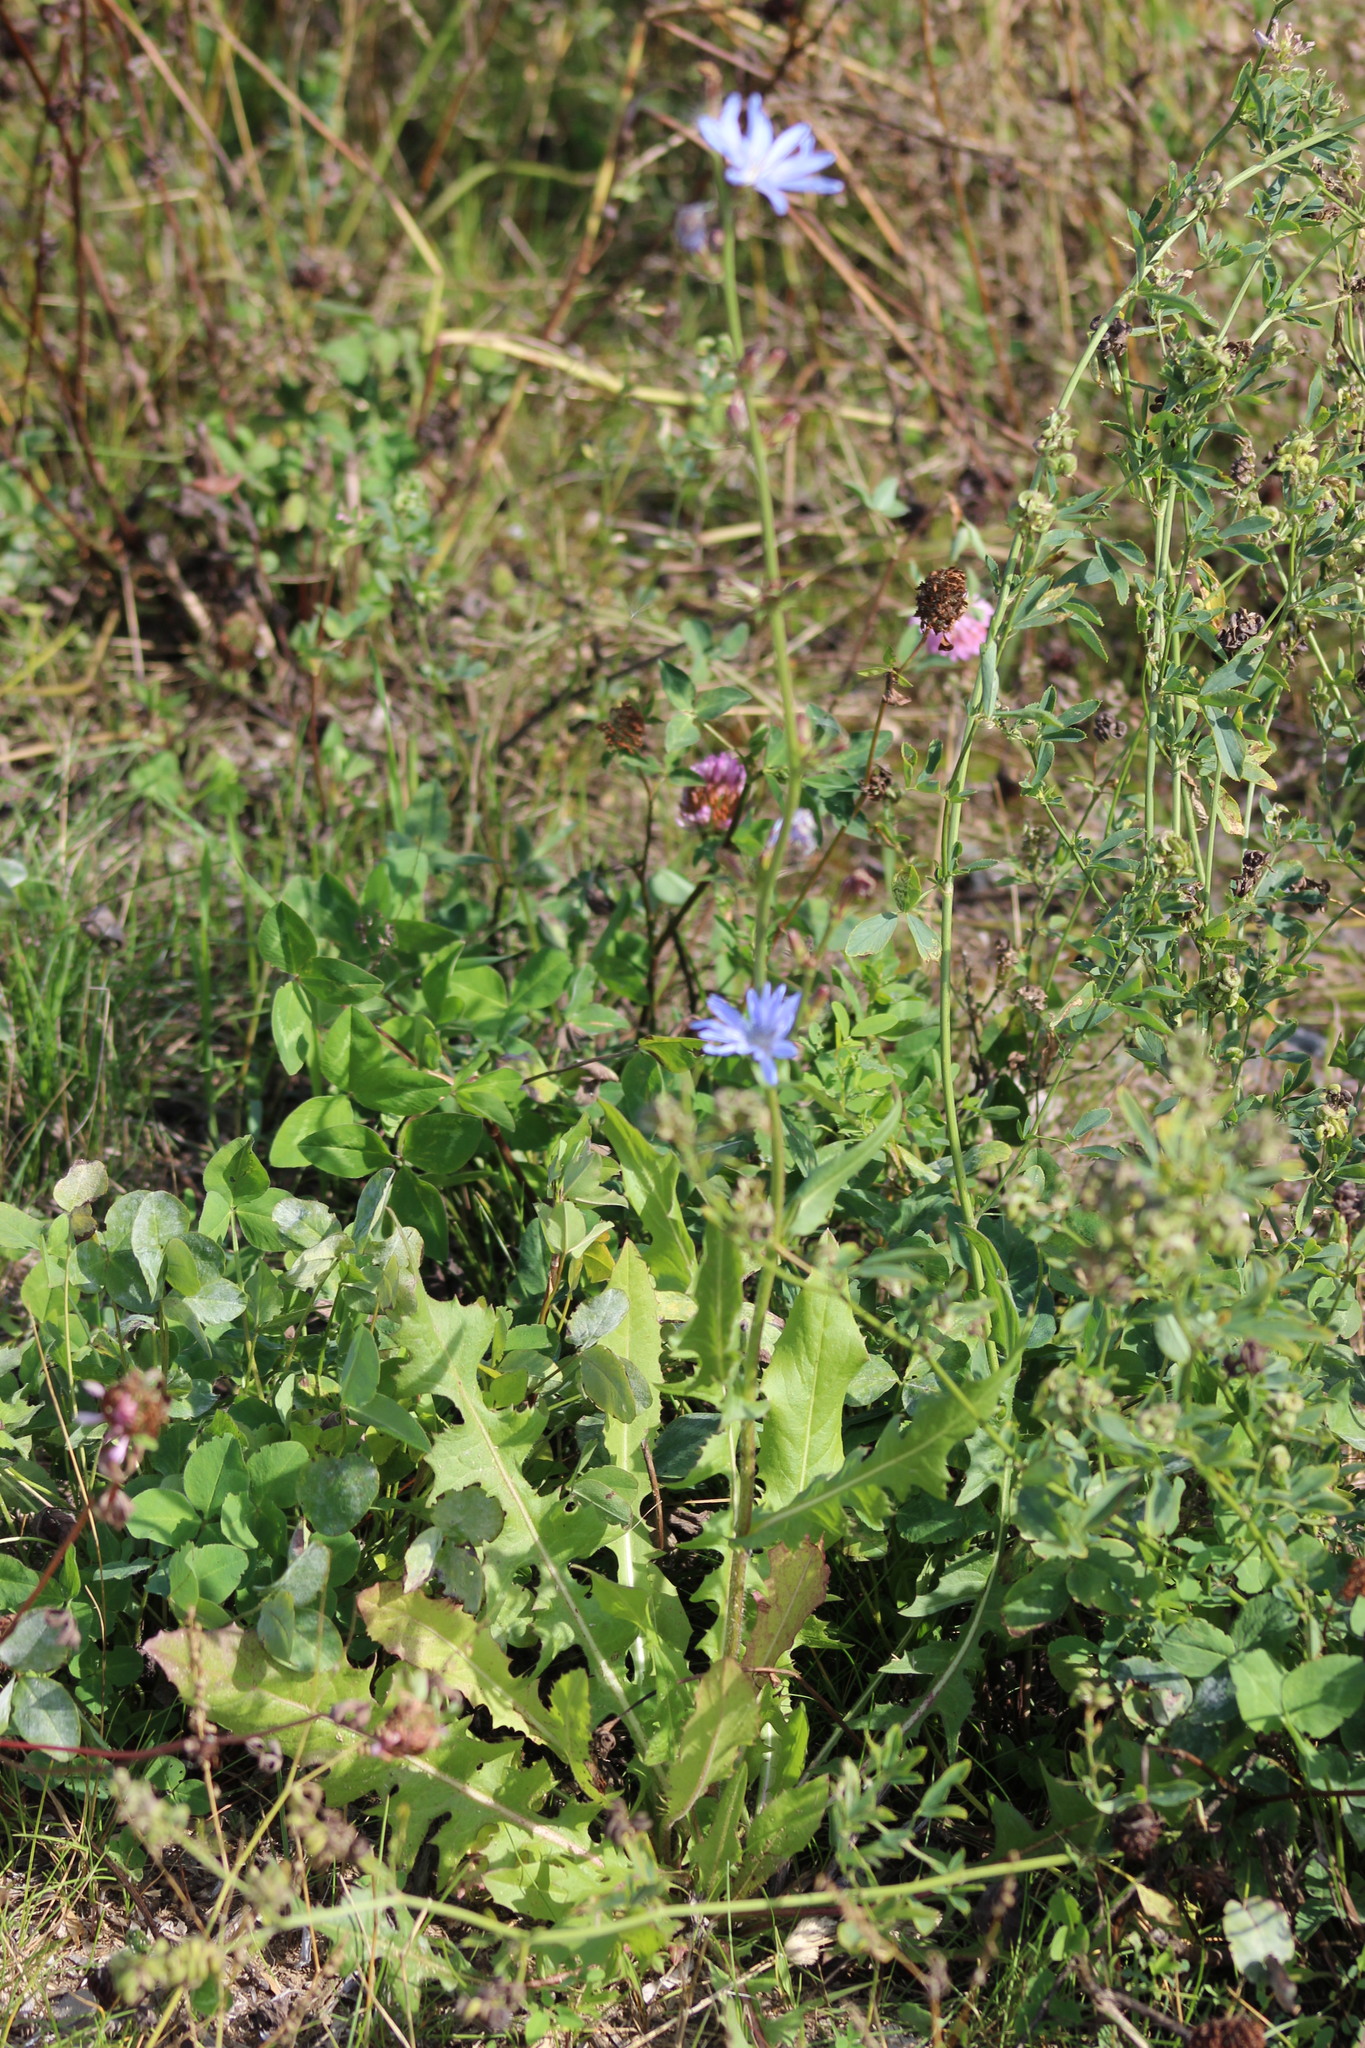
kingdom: Plantae
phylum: Tracheophyta
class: Magnoliopsida
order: Asterales
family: Asteraceae
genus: Cichorium
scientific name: Cichorium intybus
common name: Chicory
